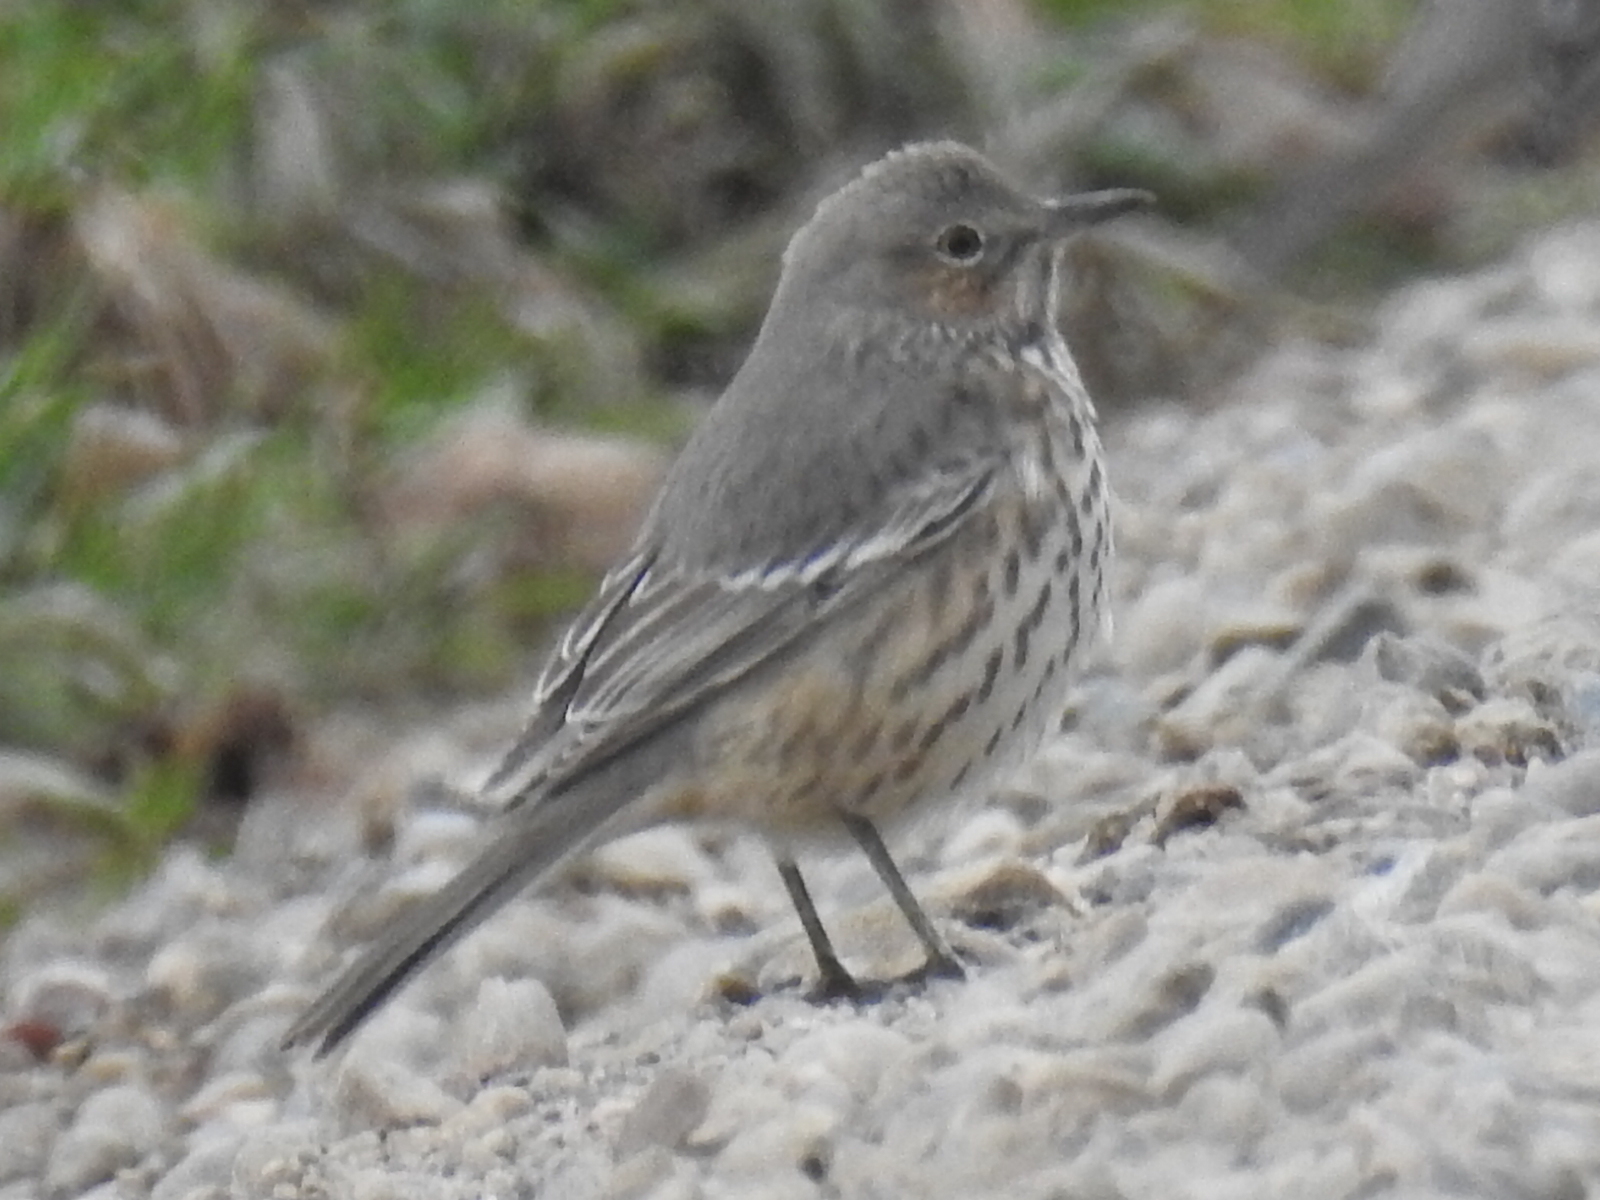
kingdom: Animalia
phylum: Chordata
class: Aves
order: Passeriformes
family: Mimidae
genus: Oreoscoptes
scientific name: Oreoscoptes montanus
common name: Sage thrasher
